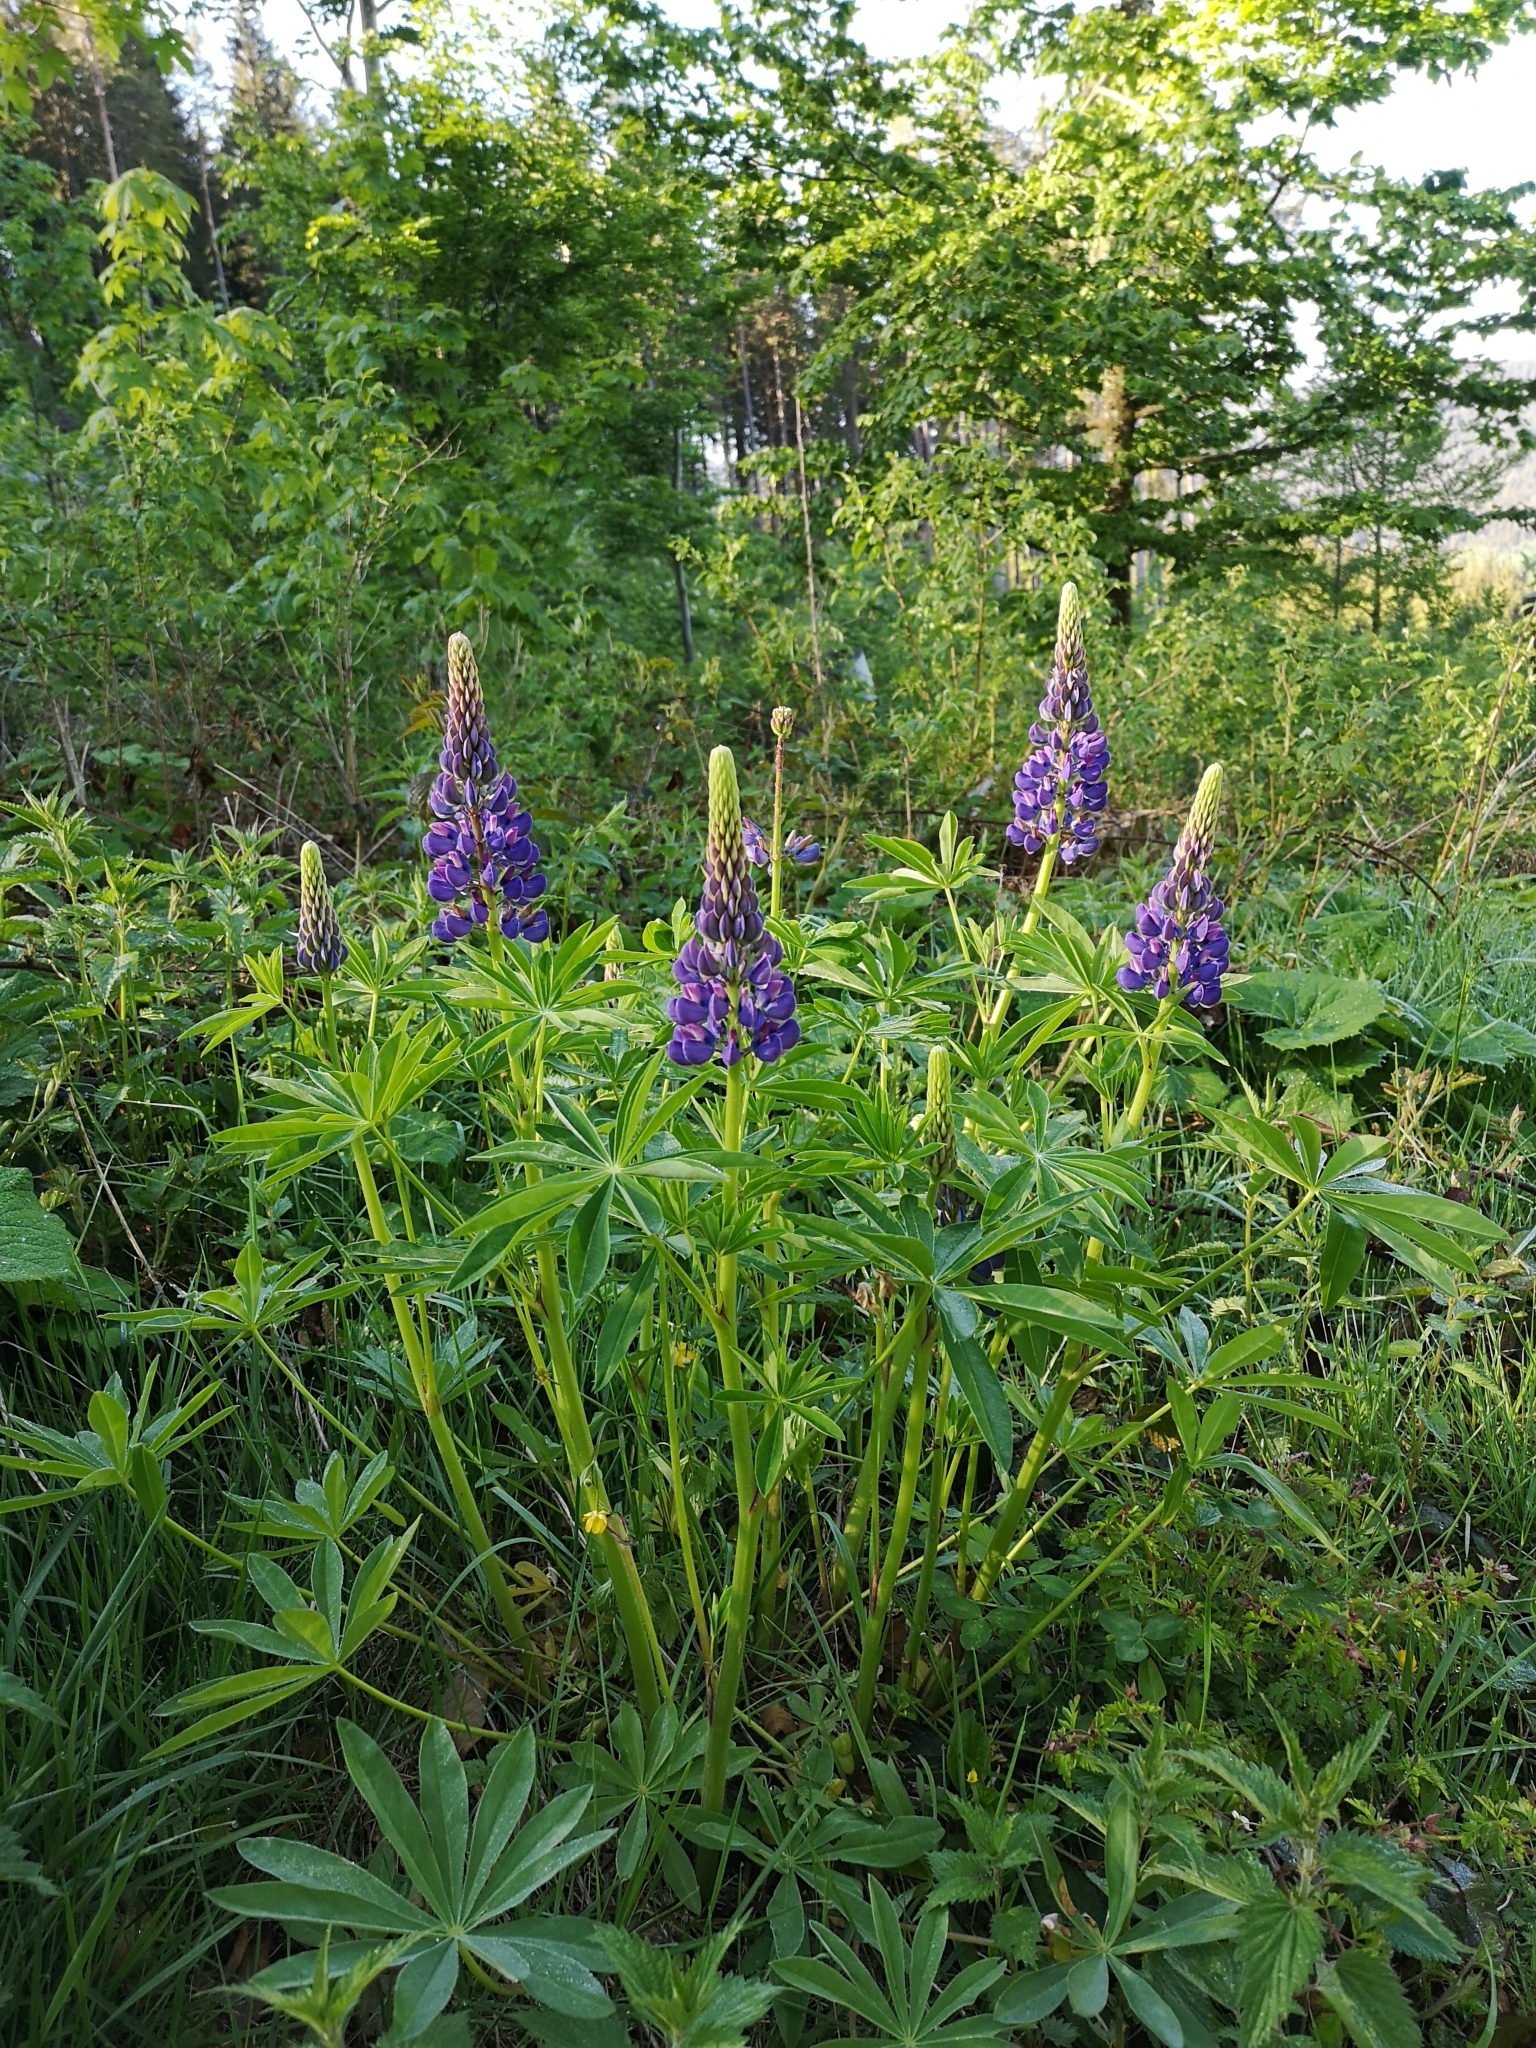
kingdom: Plantae
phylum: Tracheophyta
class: Magnoliopsida
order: Fabales
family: Fabaceae
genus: Lupinus
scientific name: Lupinus polyphyllus
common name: Garden lupin
